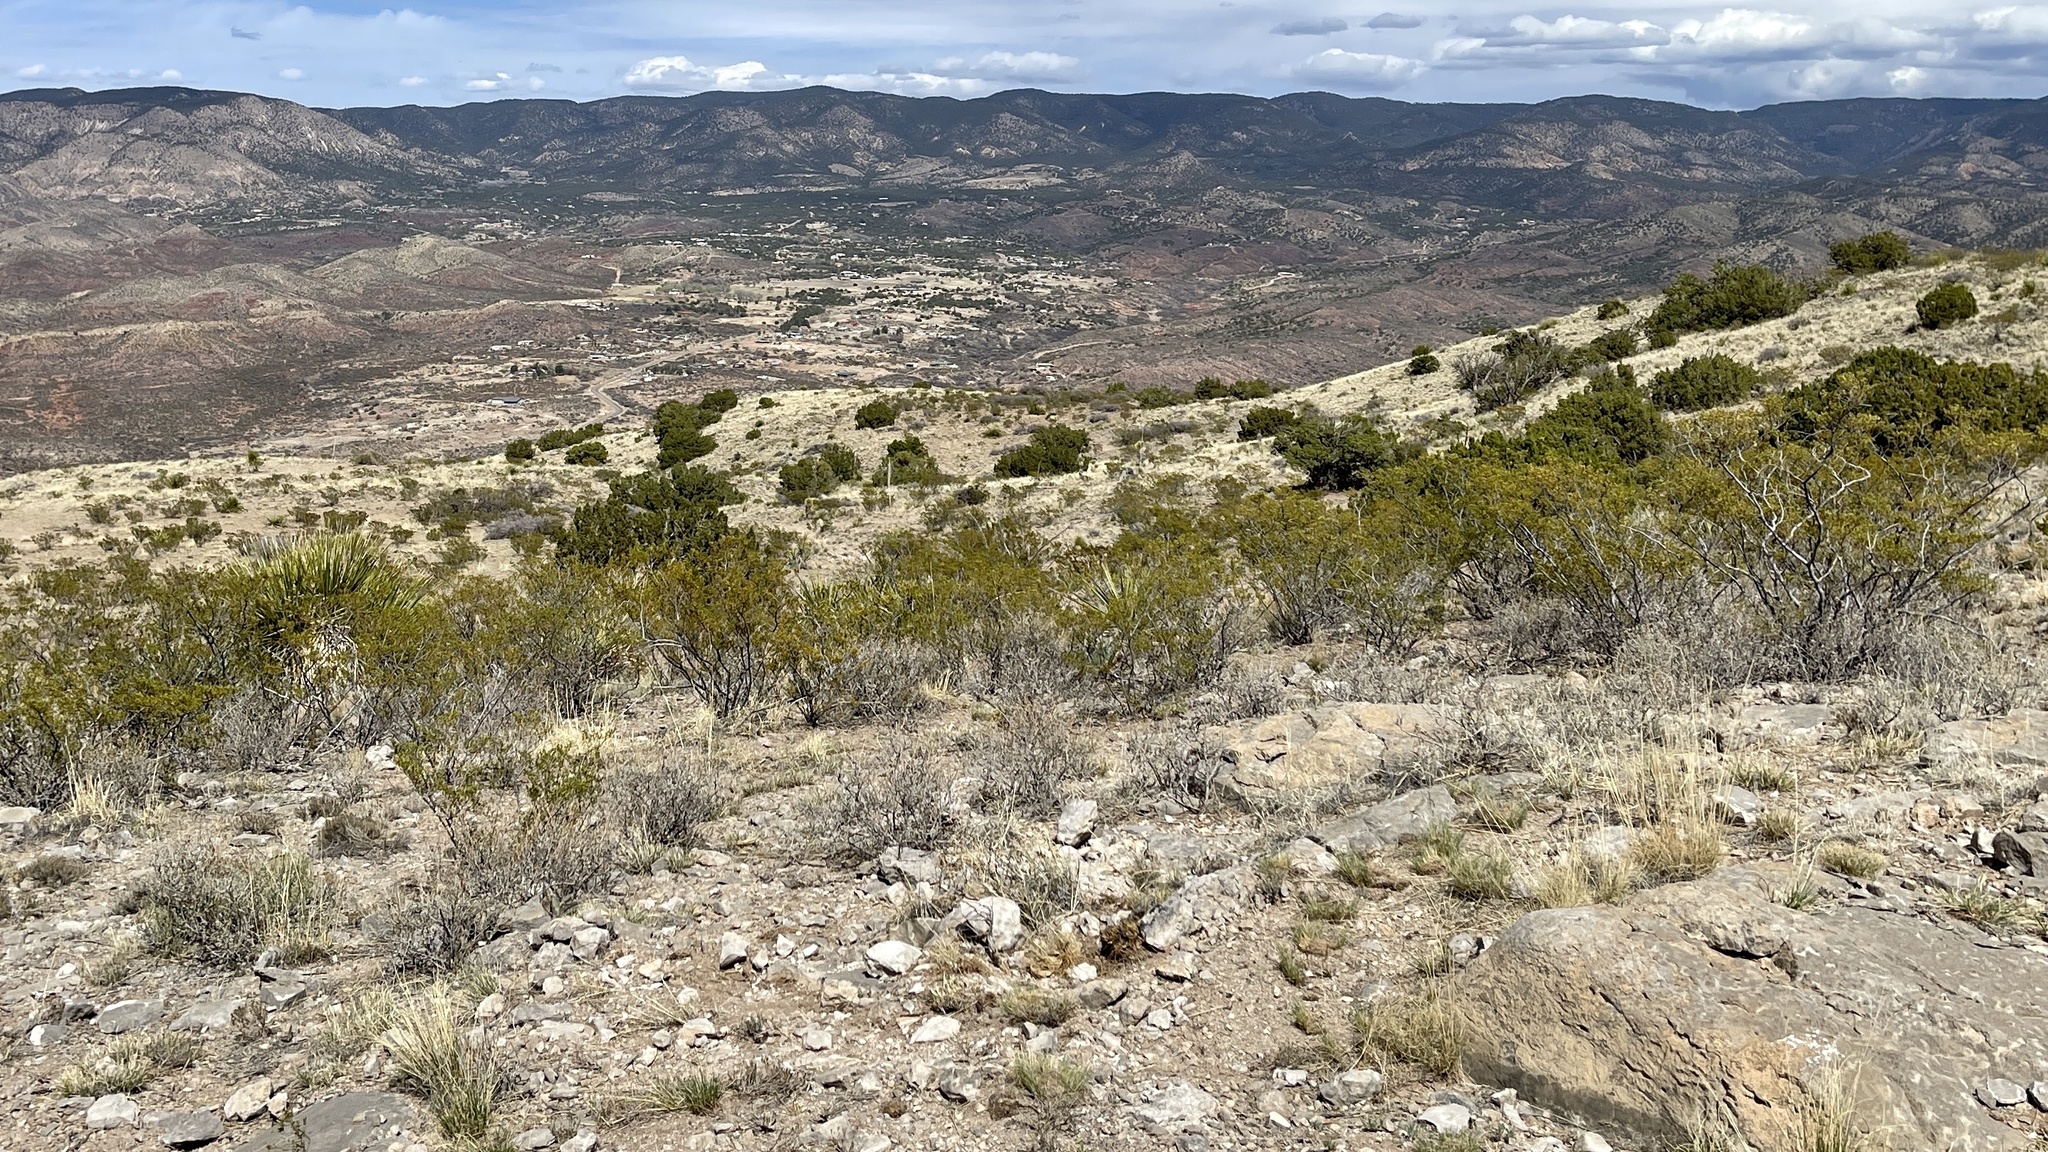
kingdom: Plantae
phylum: Tracheophyta
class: Magnoliopsida
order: Zygophyllales
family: Zygophyllaceae
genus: Larrea
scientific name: Larrea tridentata
